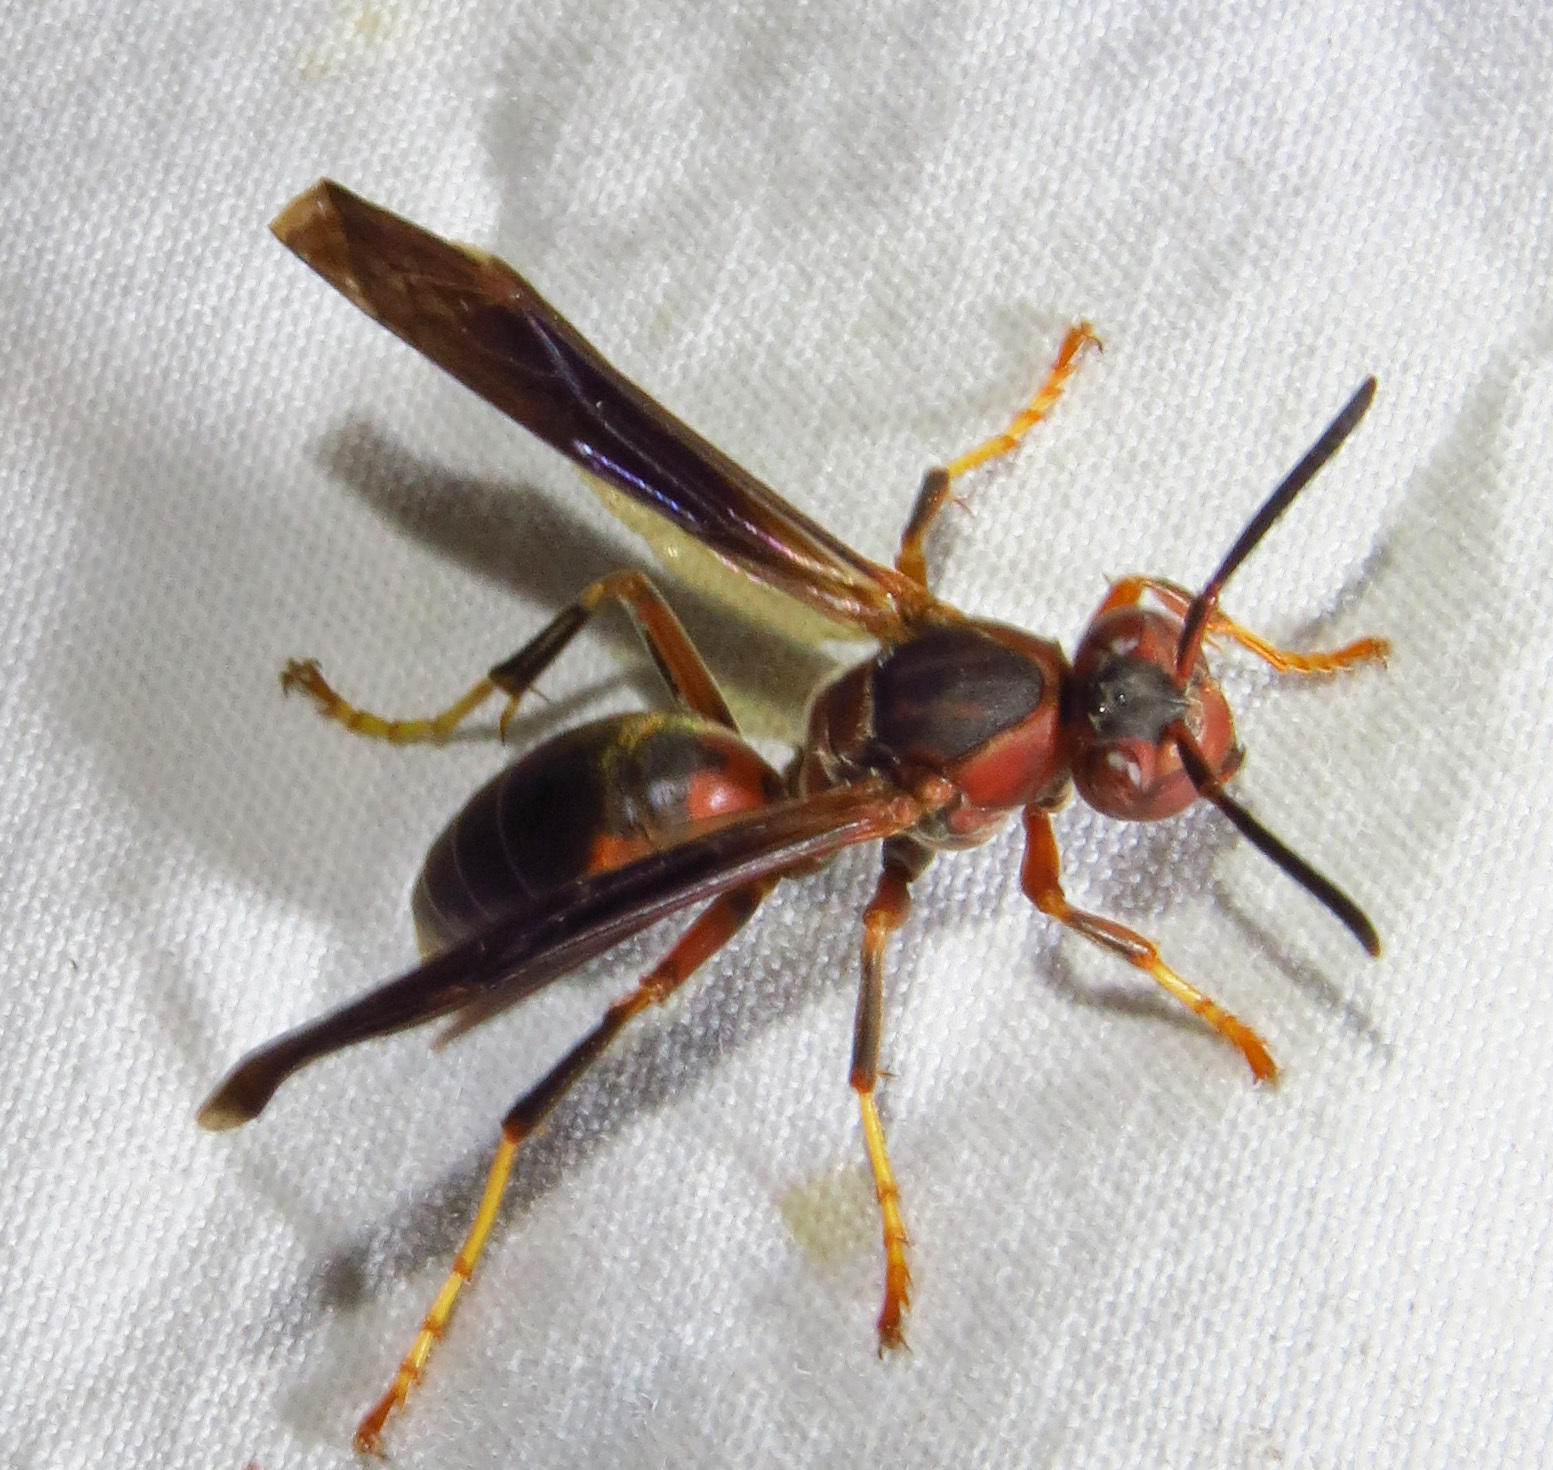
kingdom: Animalia
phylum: Arthropoda
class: Insecta
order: Hymenoptera
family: Eumenidae
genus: Polistes
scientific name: Polistes fuscatus
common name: Dark paper wasp
